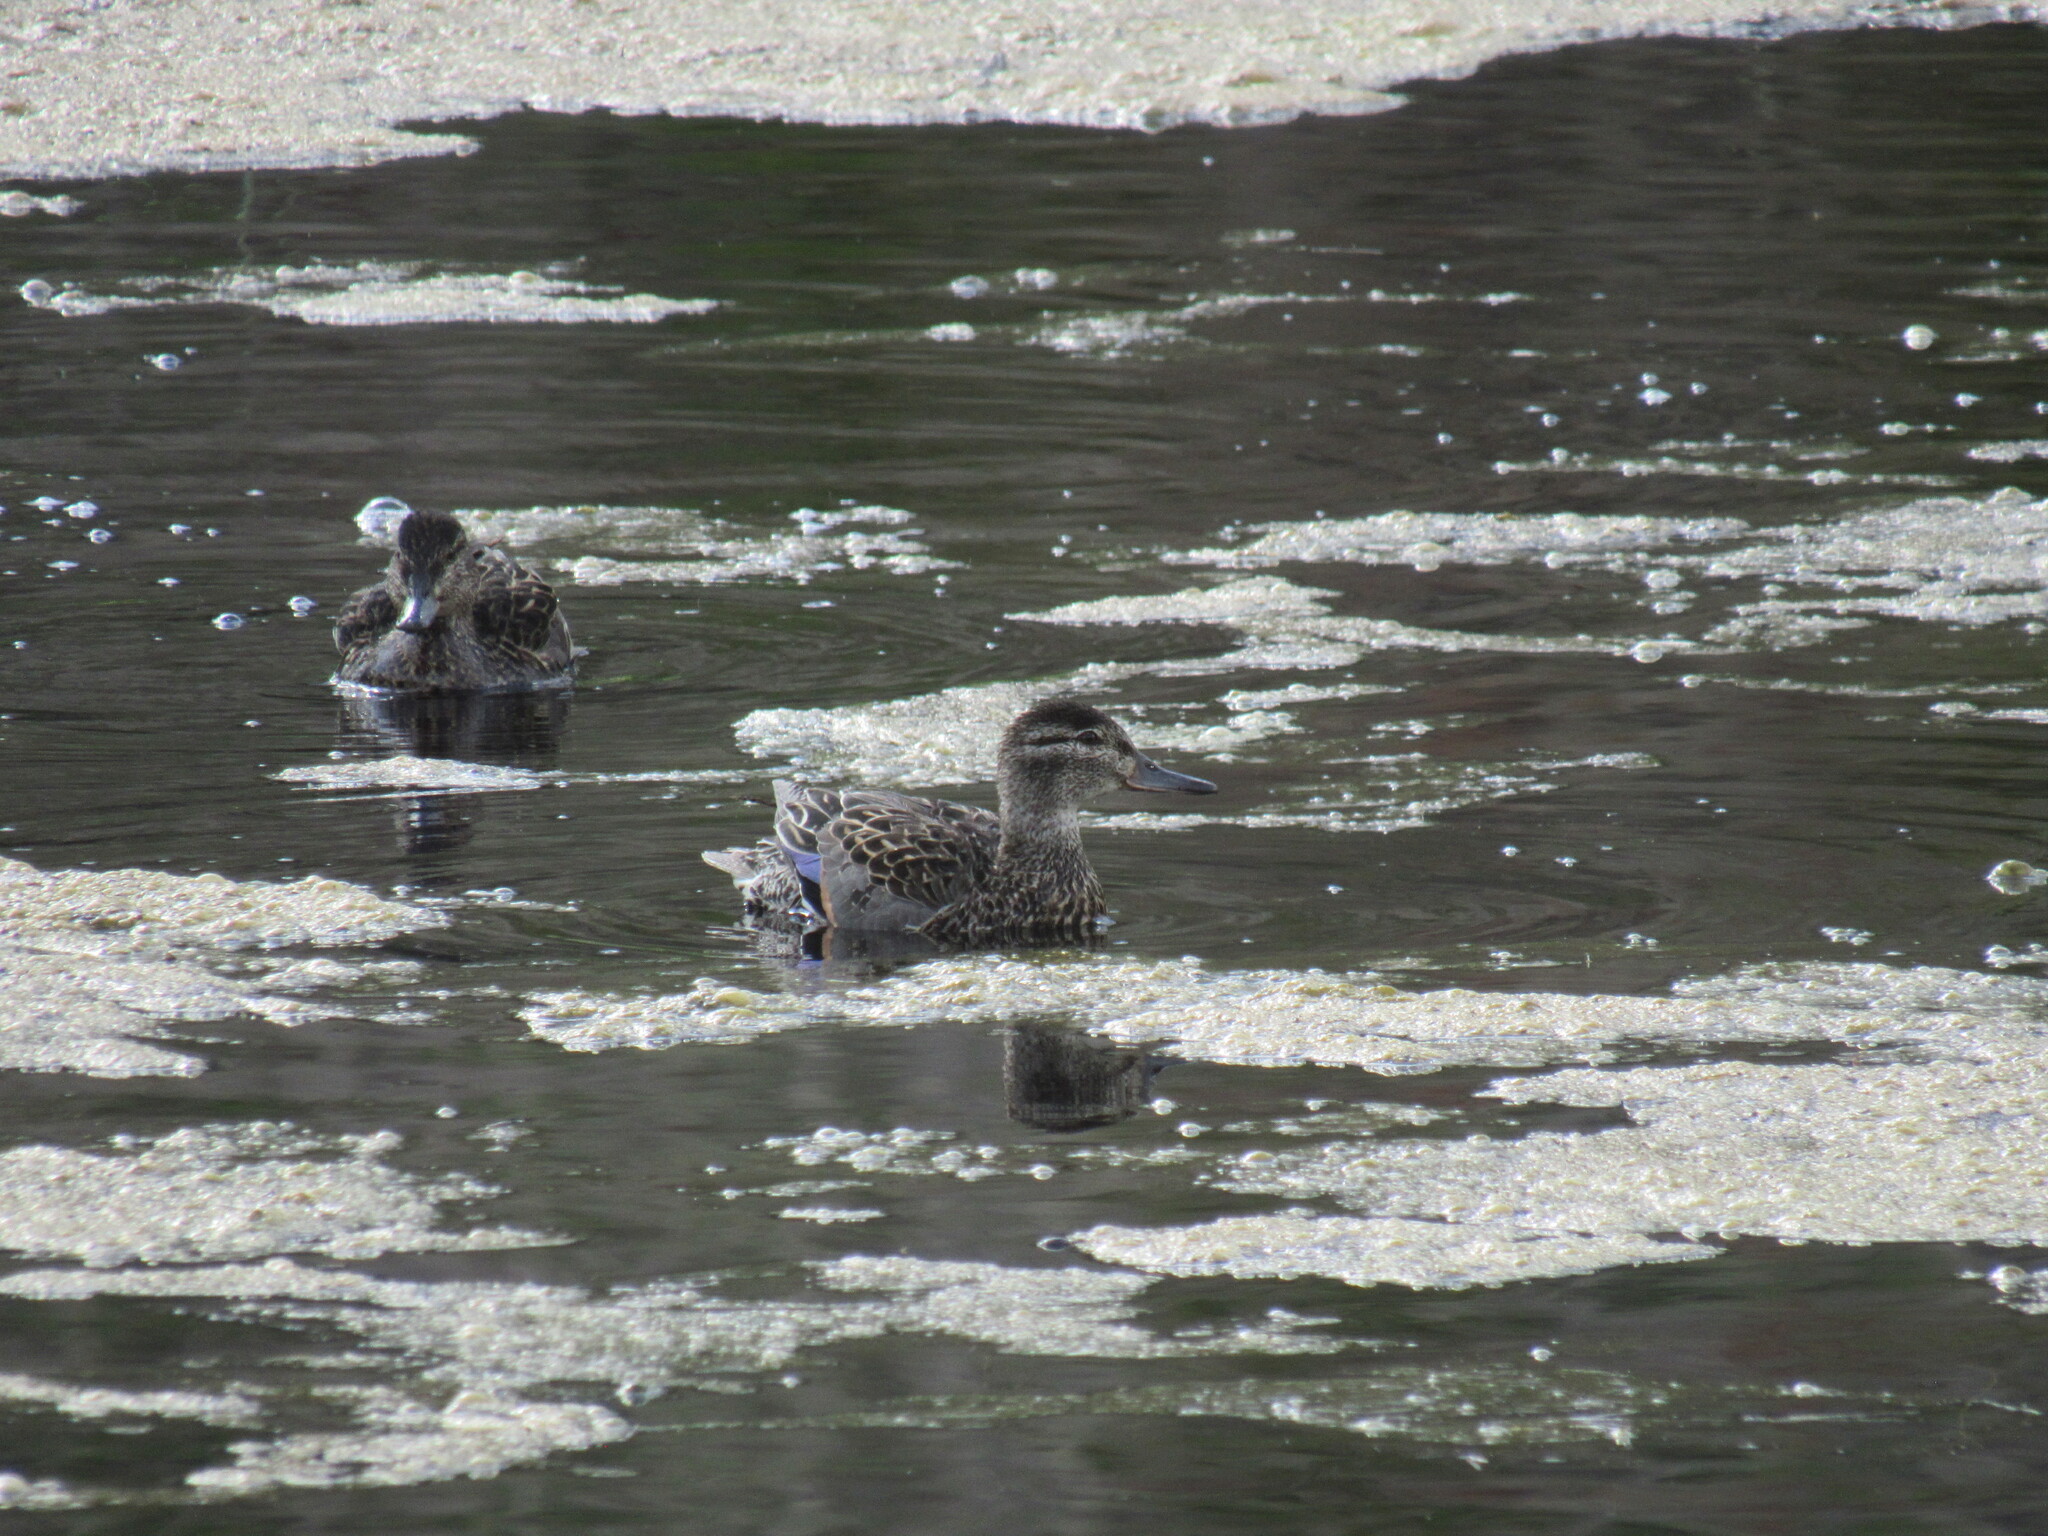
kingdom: Animalia
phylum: Chordata
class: Aves
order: Anseriformes
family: Anatidae
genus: Spatula
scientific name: Spatula discors
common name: Blue-winged teal
